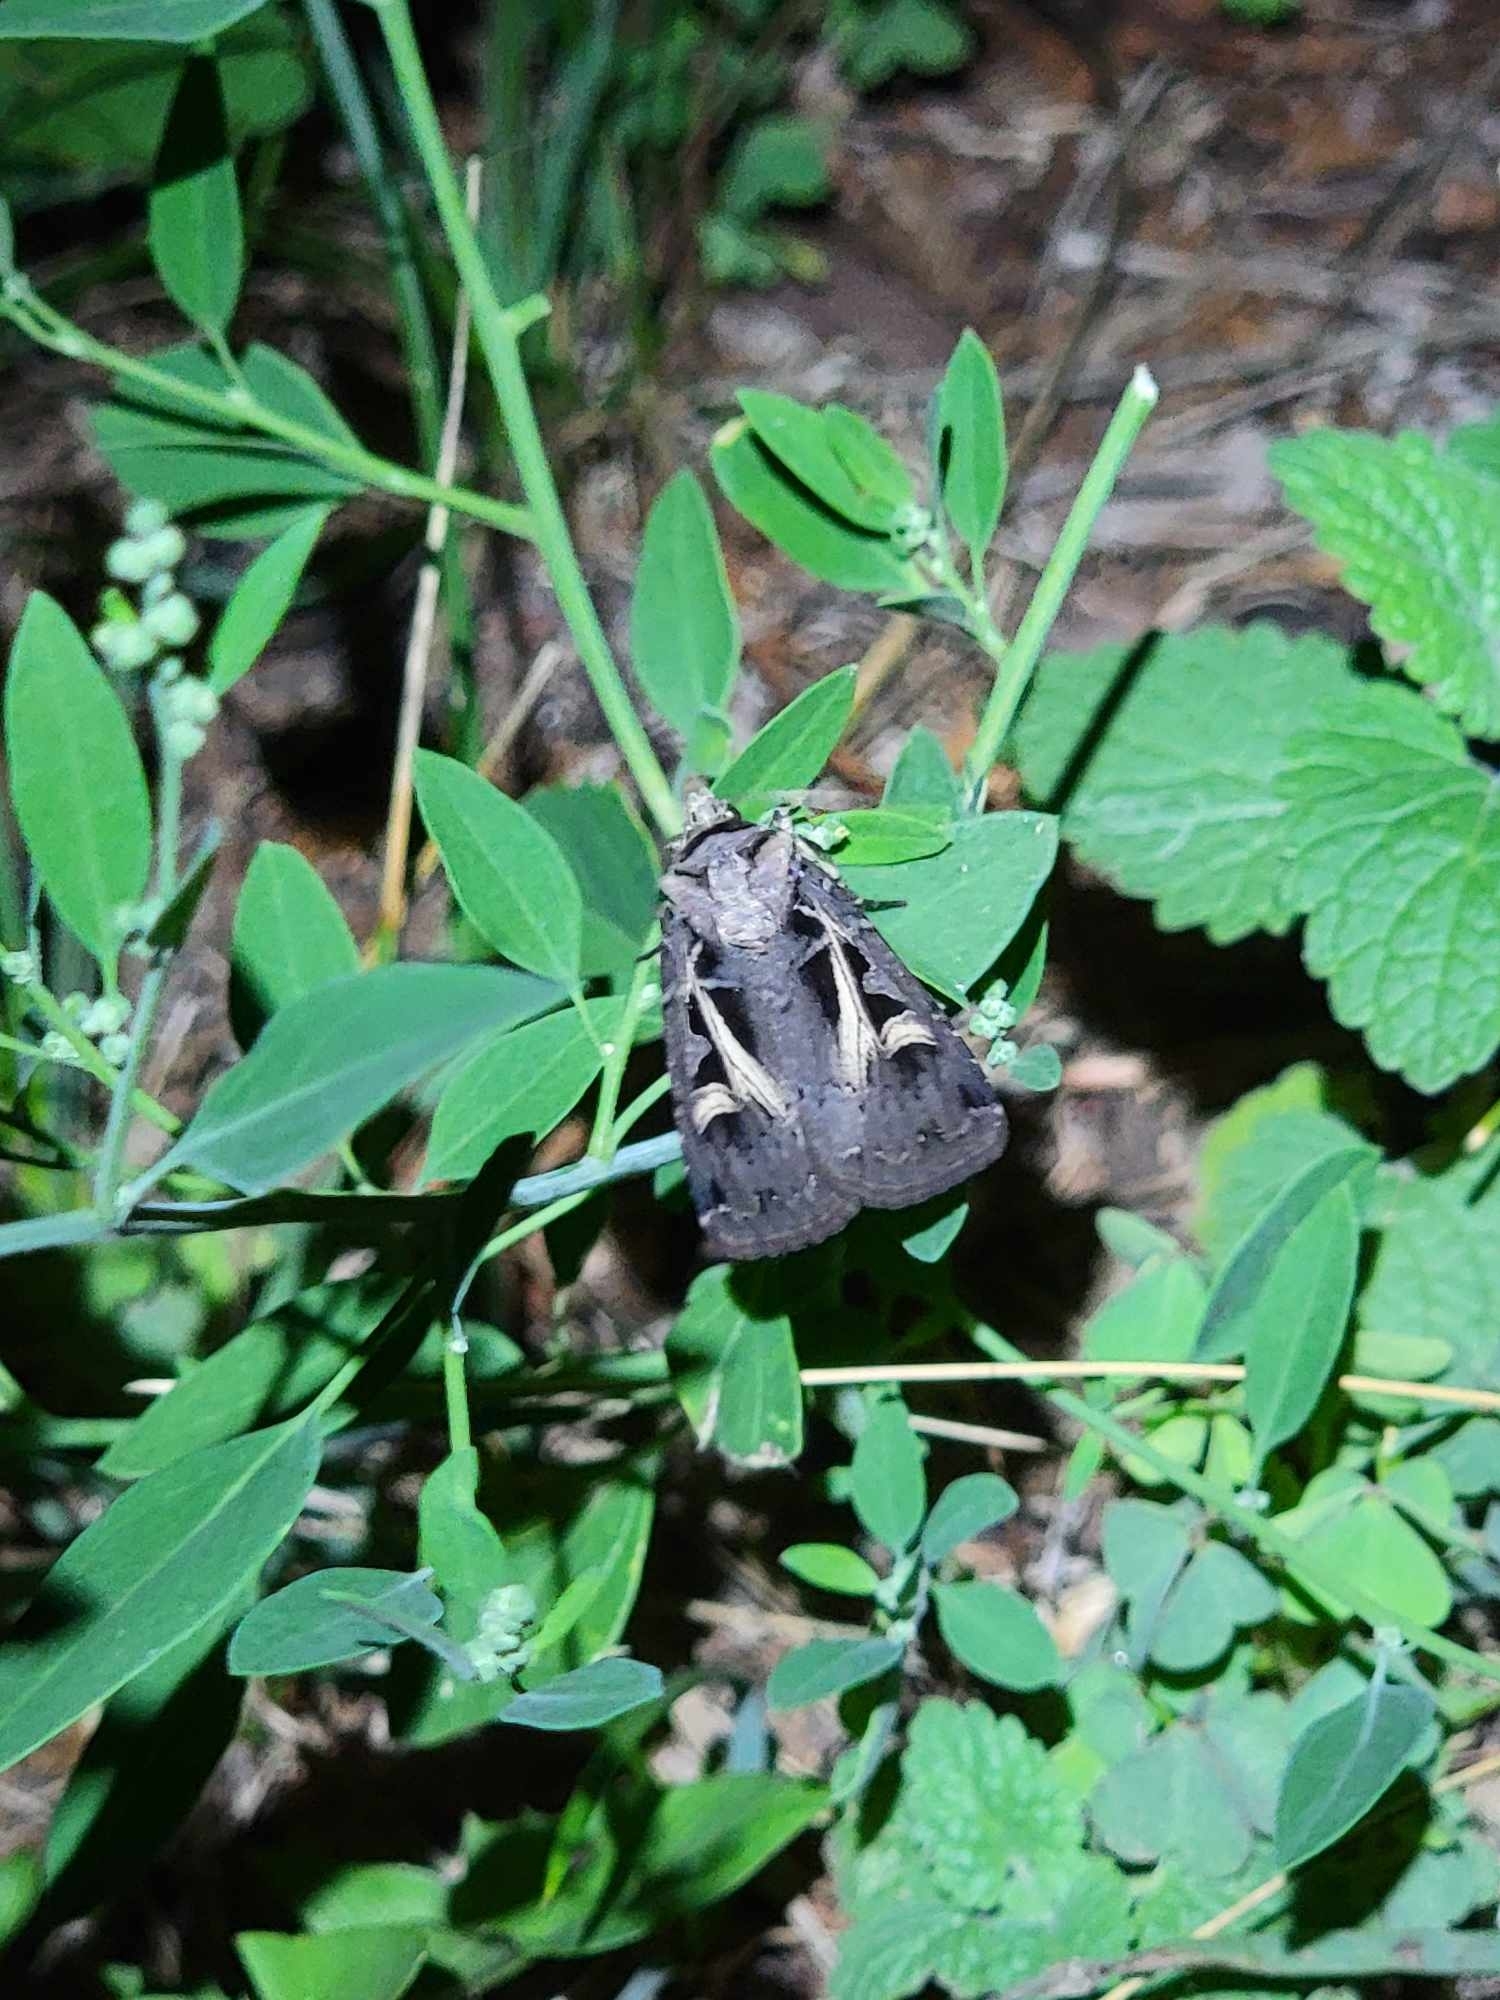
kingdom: Animalia
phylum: Arthropoda
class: Insecta
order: Lepidoptera
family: Noctuidae
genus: Feltia
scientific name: Feltia herilis
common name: Master's dart
